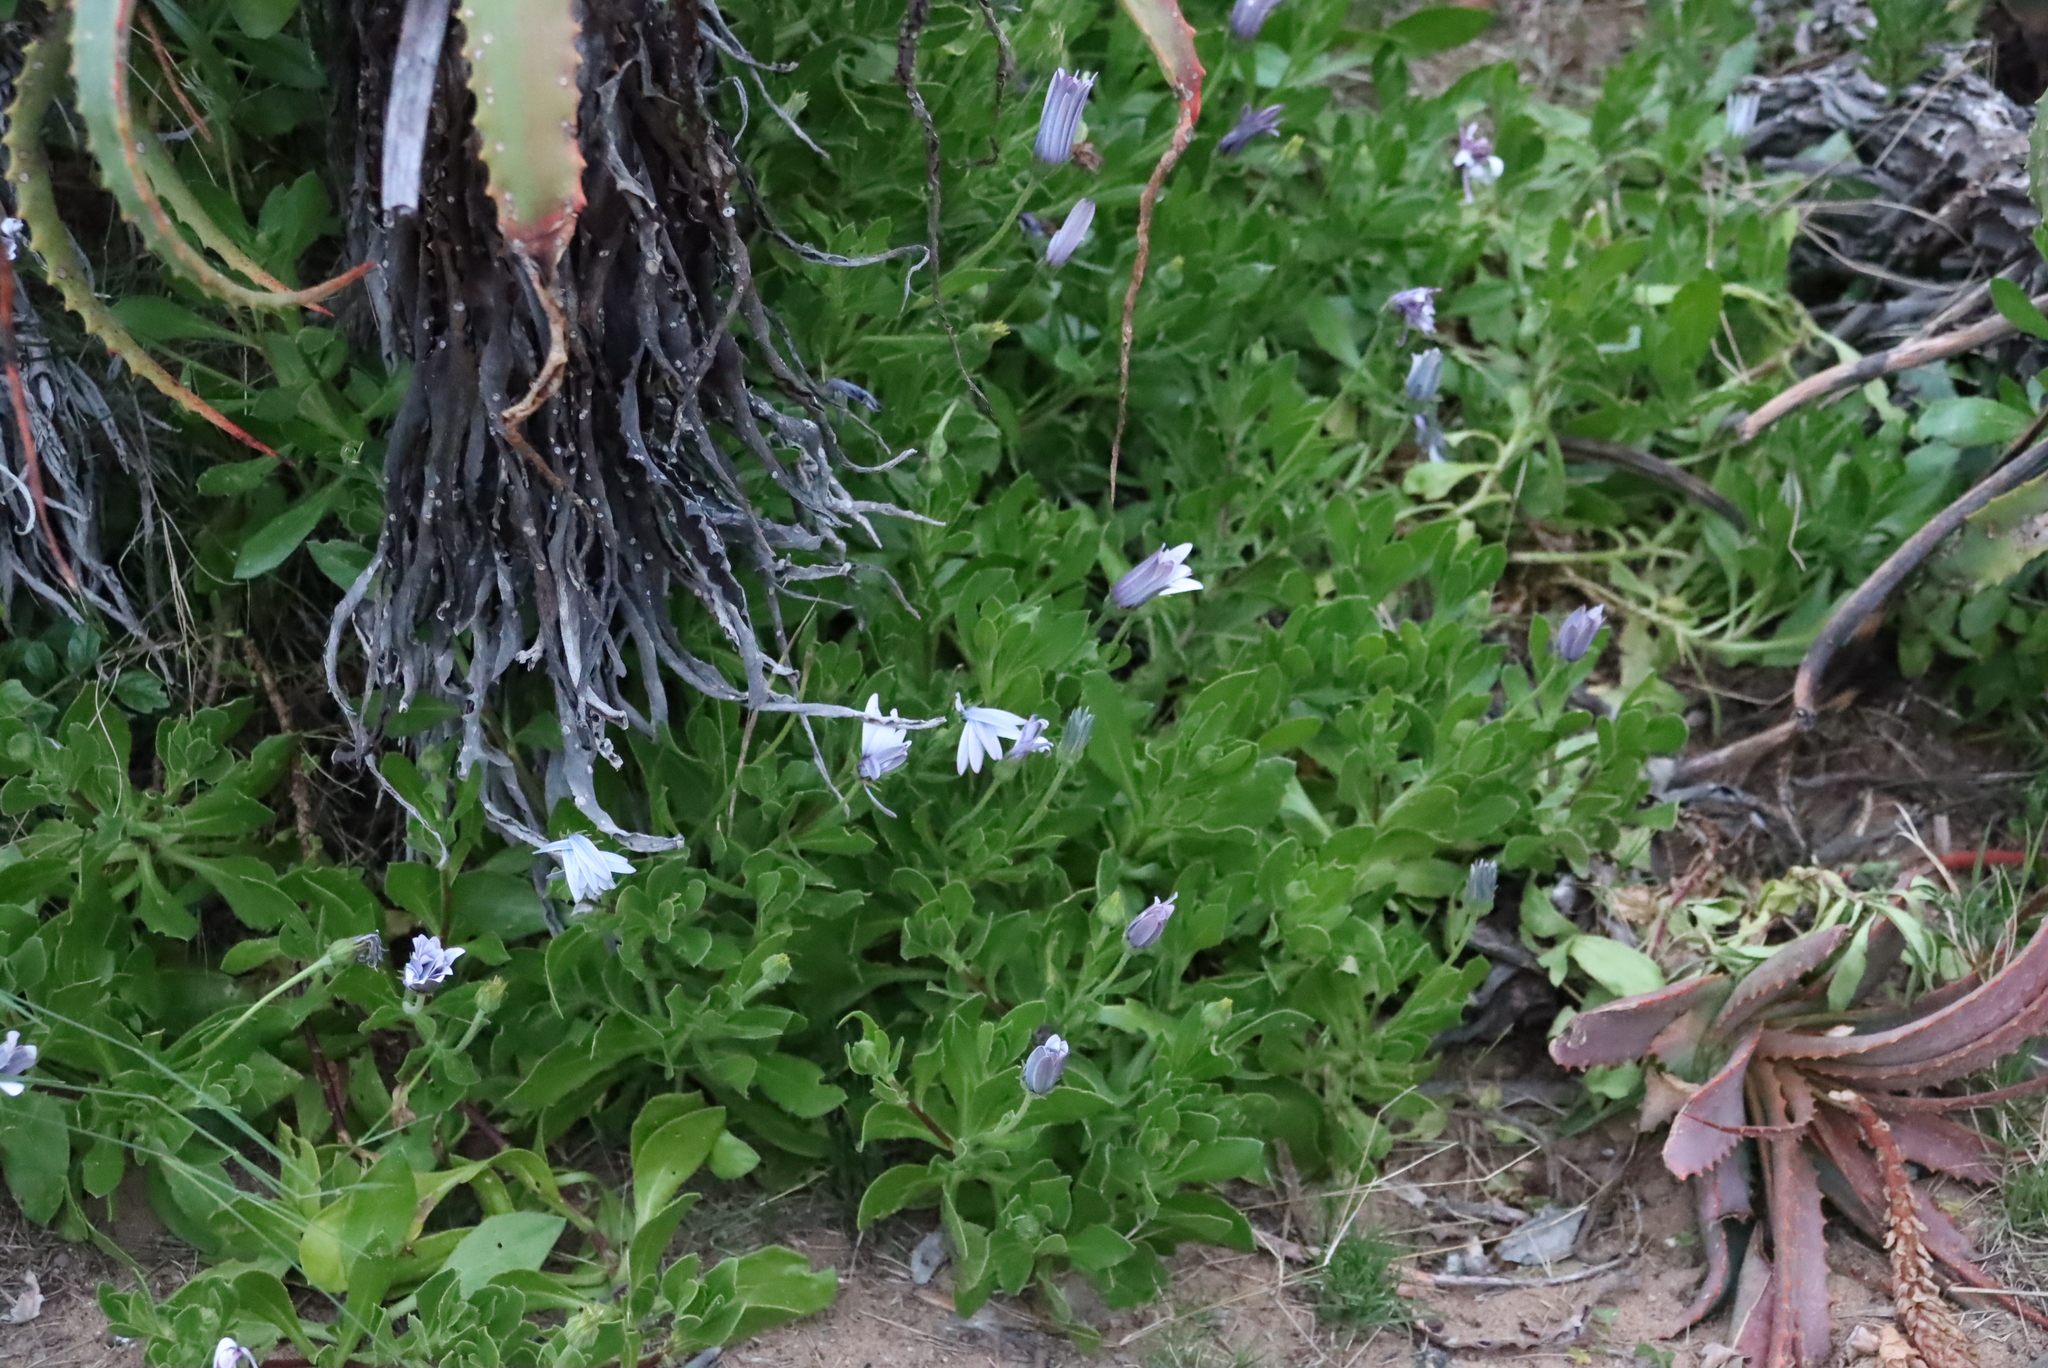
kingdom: Plantae
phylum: Tracheophyta
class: Magnoliopsida
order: Asterales
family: Asteraceae
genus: Dimorphotheca
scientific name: Dimorphotheca fruticosa
